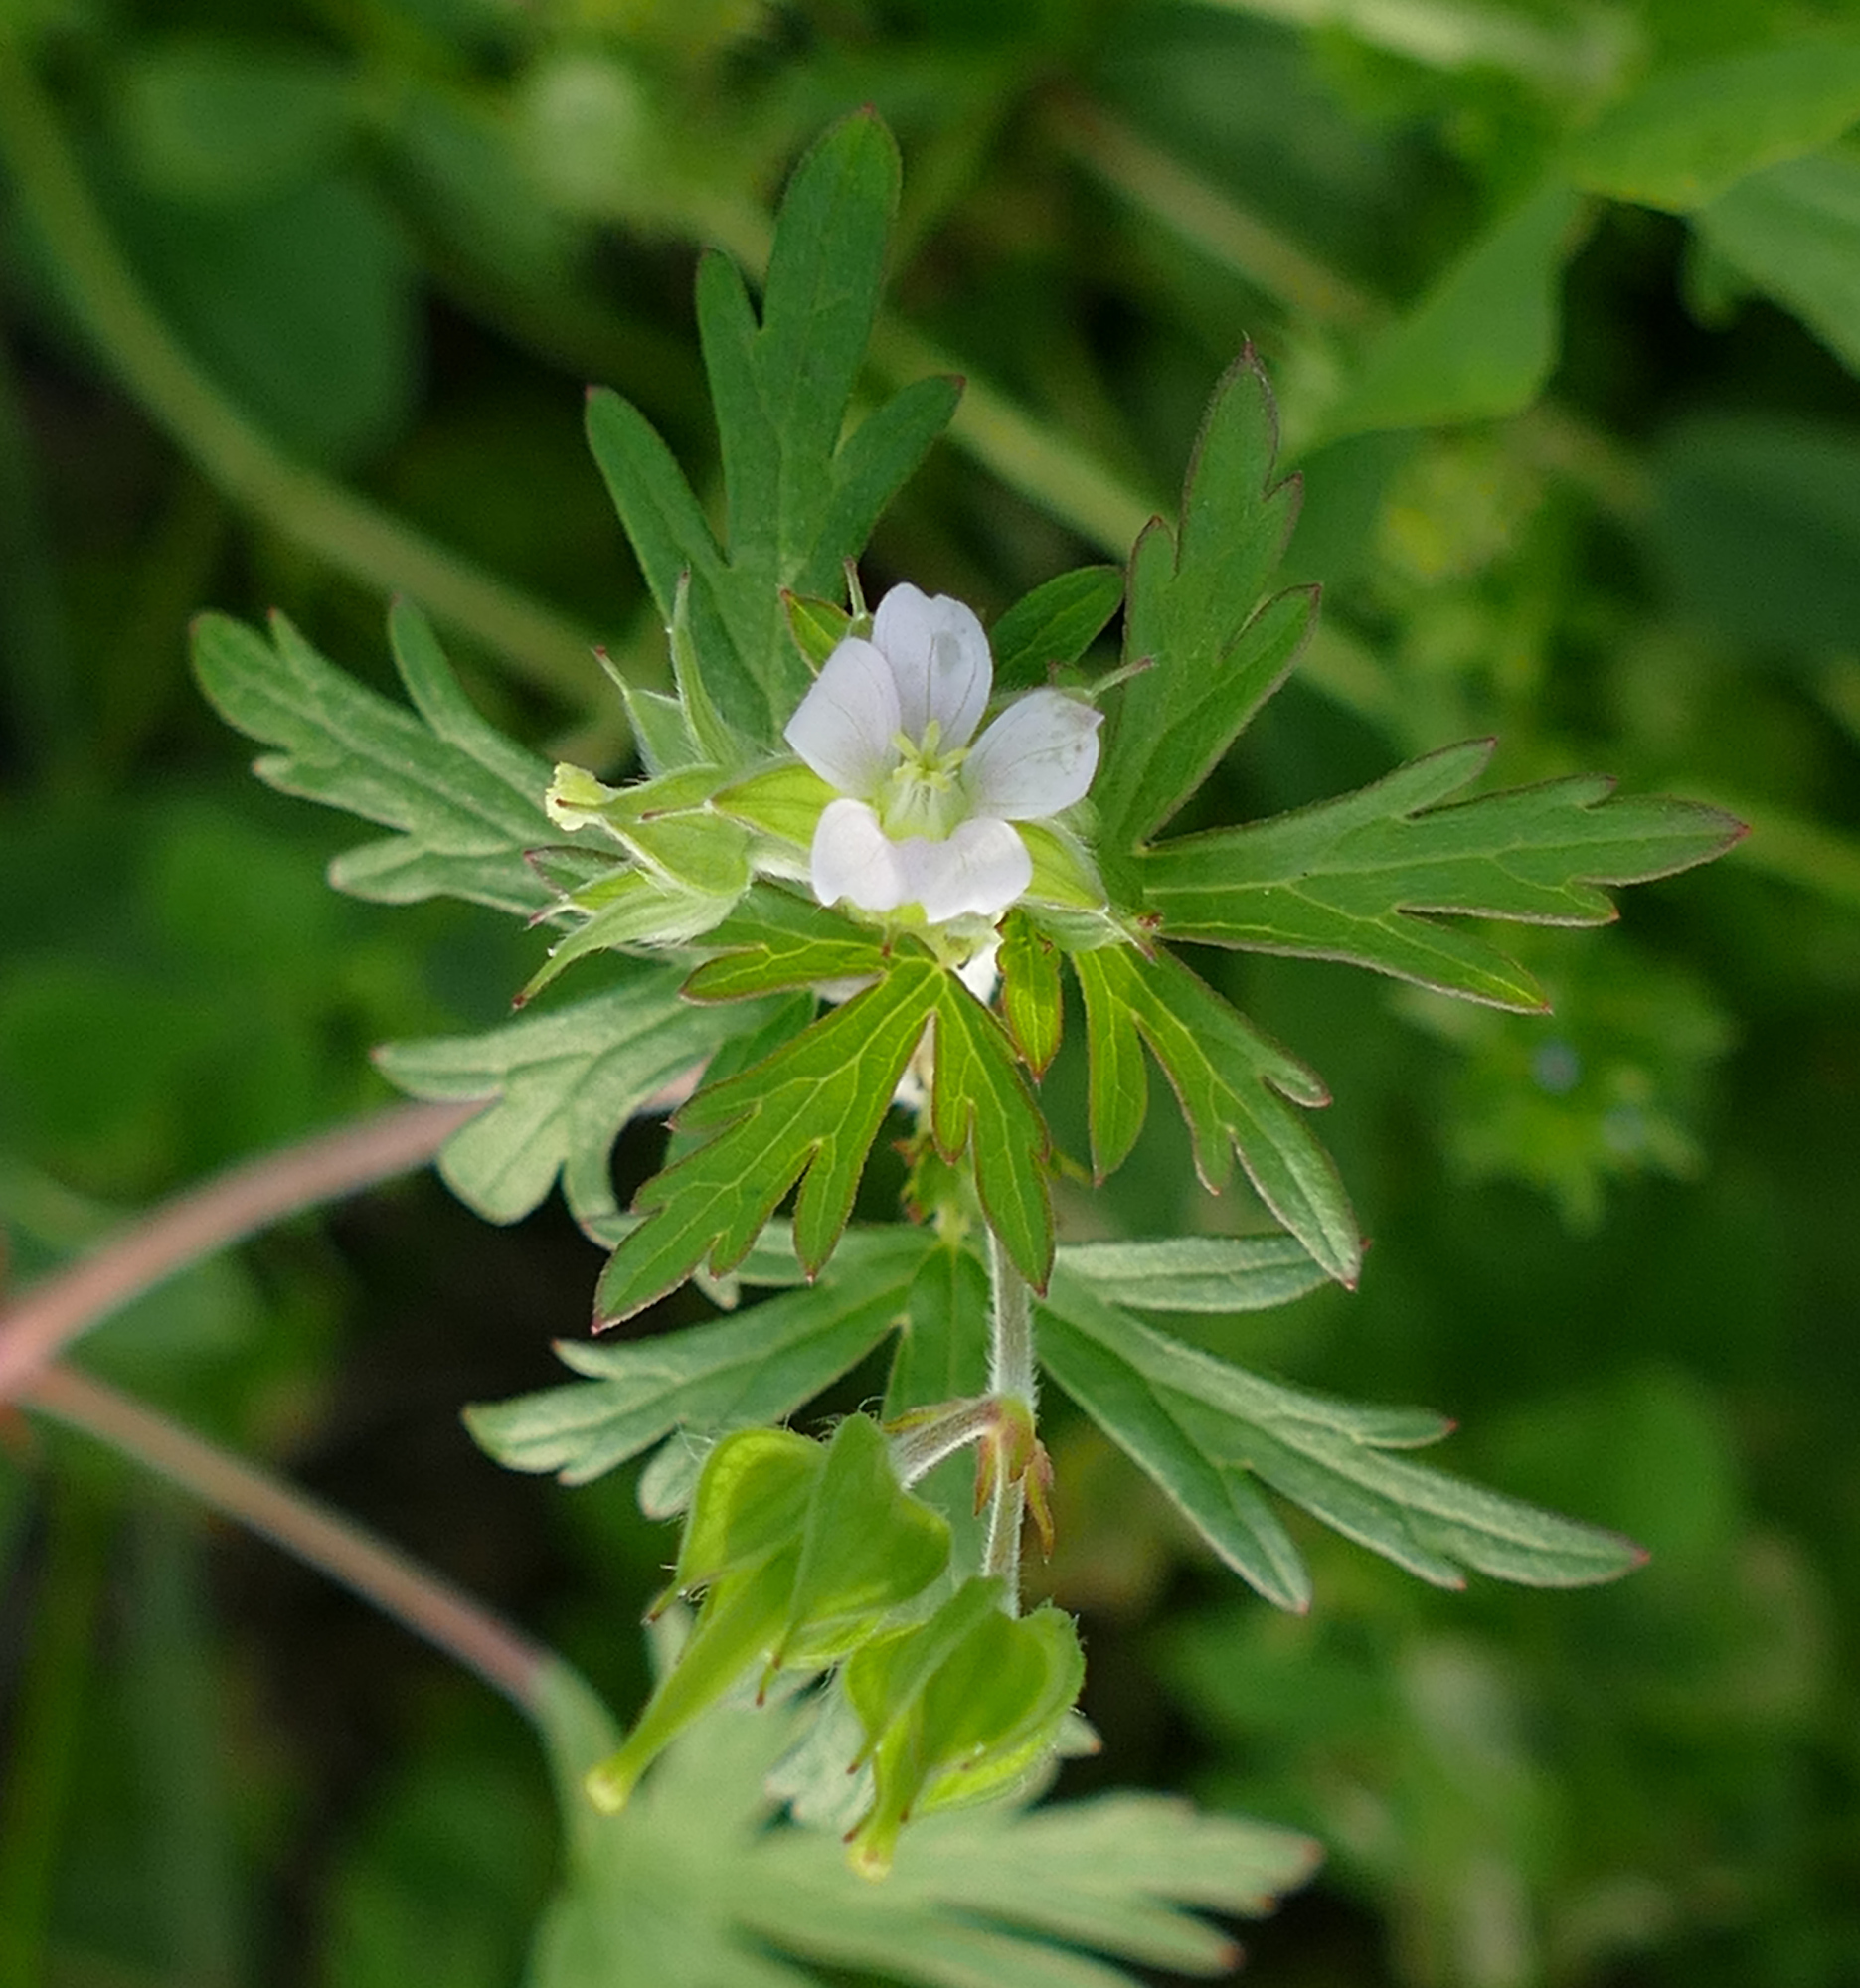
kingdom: Plantae
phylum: Tracheophyta
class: Magnoliopsida
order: Geraniales
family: Geraniaceae
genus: Geranium
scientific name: Geranium carolinianum
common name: Carolina crane's-bill
